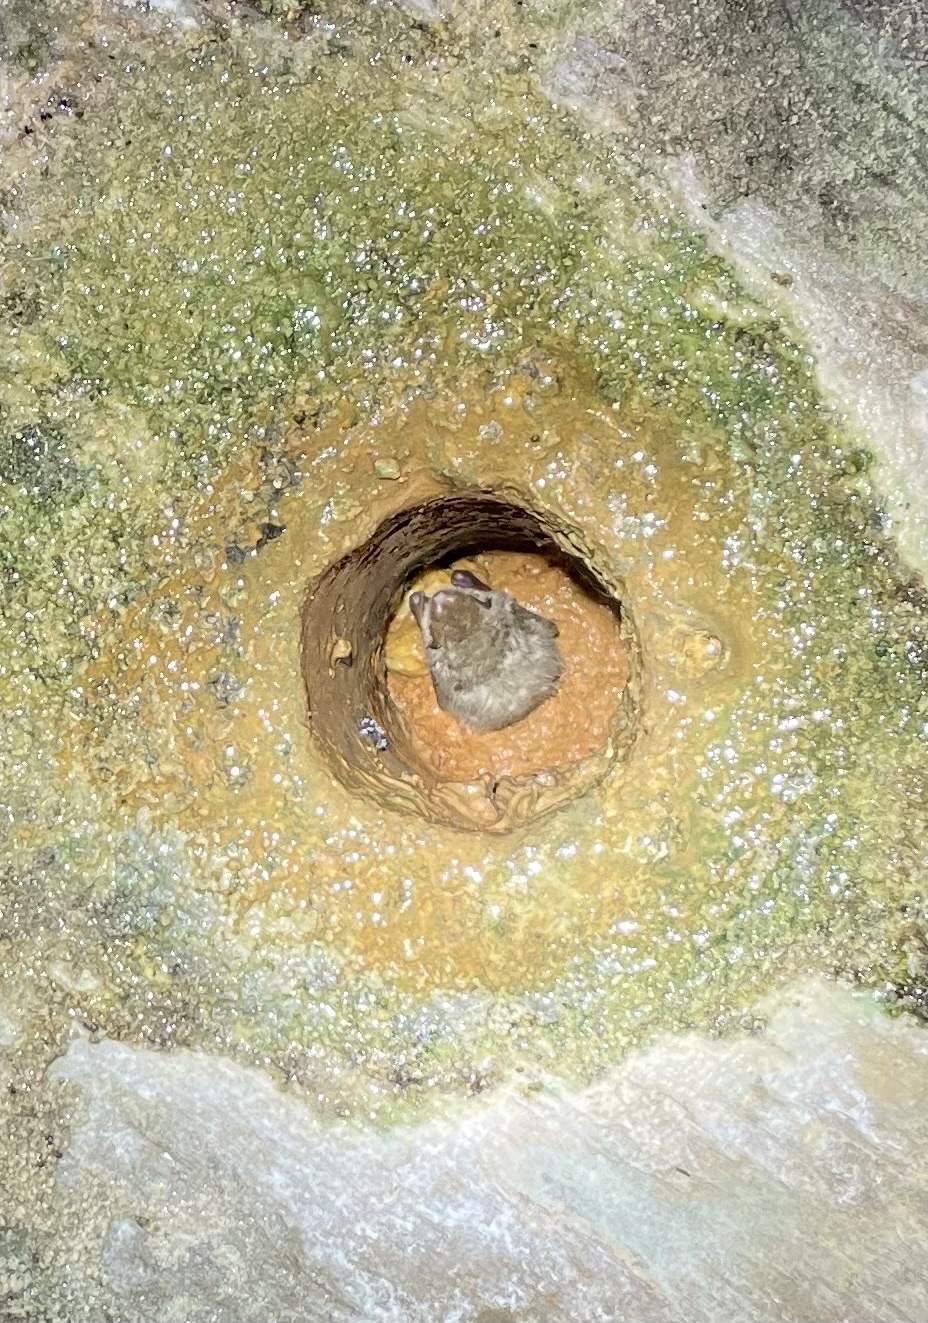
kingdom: Animalia
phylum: Chordata
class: Mammalia
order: Chiroptera
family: Vespertilionidae
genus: Perimyotis
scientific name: Perimyotis subflavus
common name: Eastern pipistrelle
